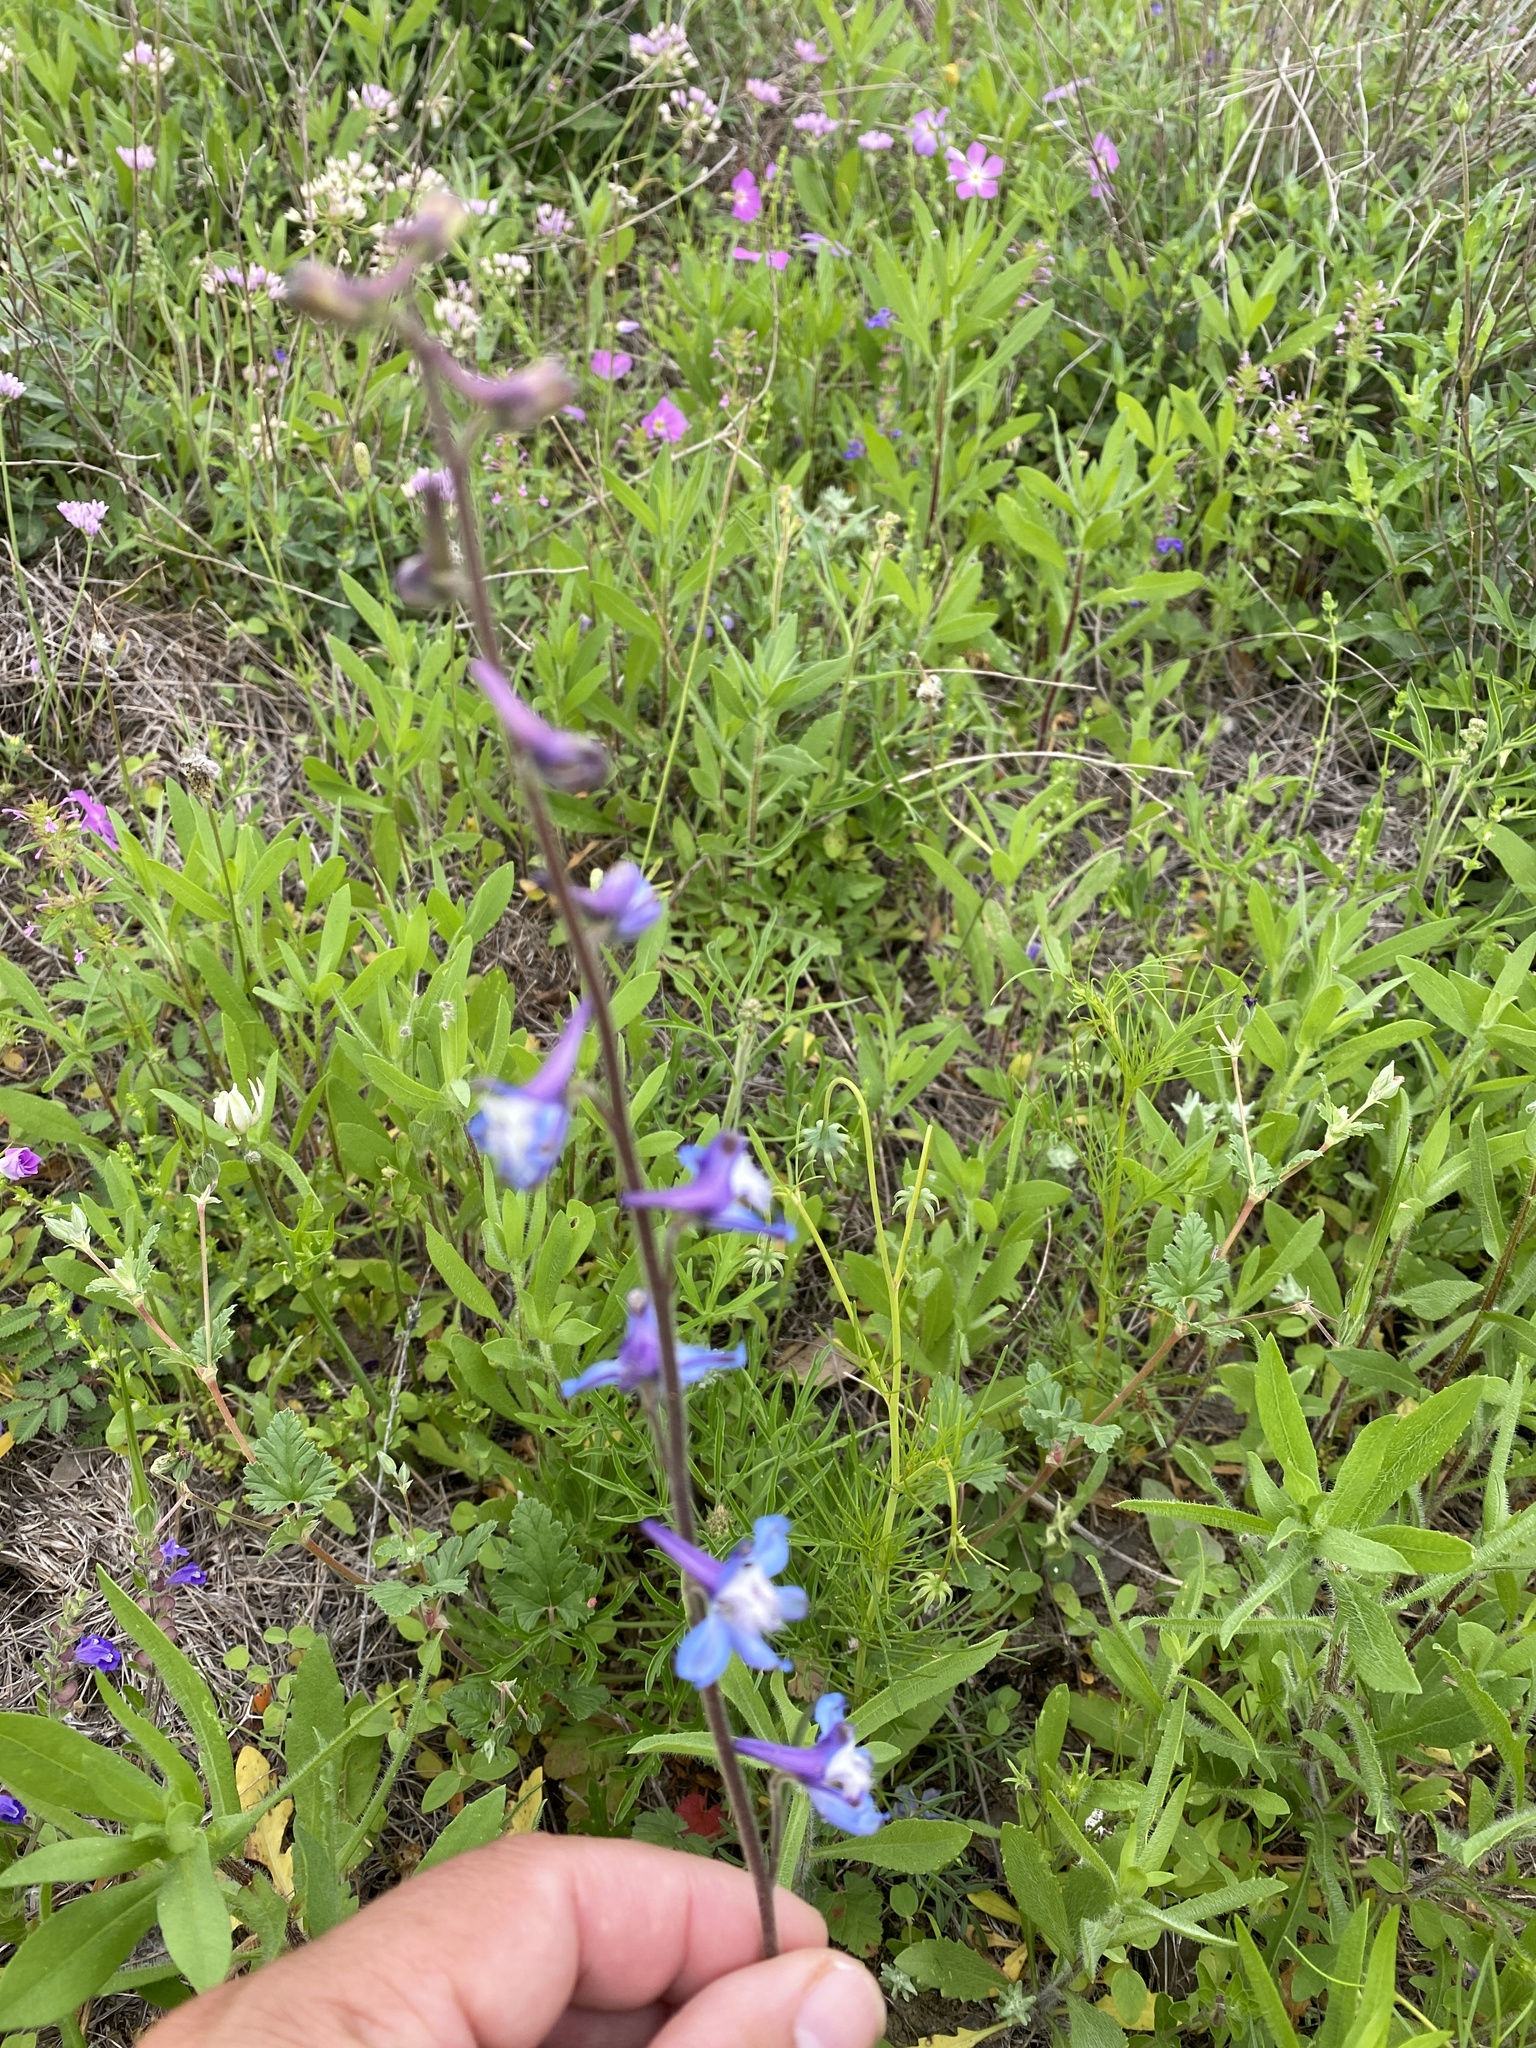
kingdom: Plantae
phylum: Tracheophyta
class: Magnoliopsida
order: Ranunculales
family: Ranunculaceae
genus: Delphinium
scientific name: Delphinium carolinianum
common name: Carolina larkspur
